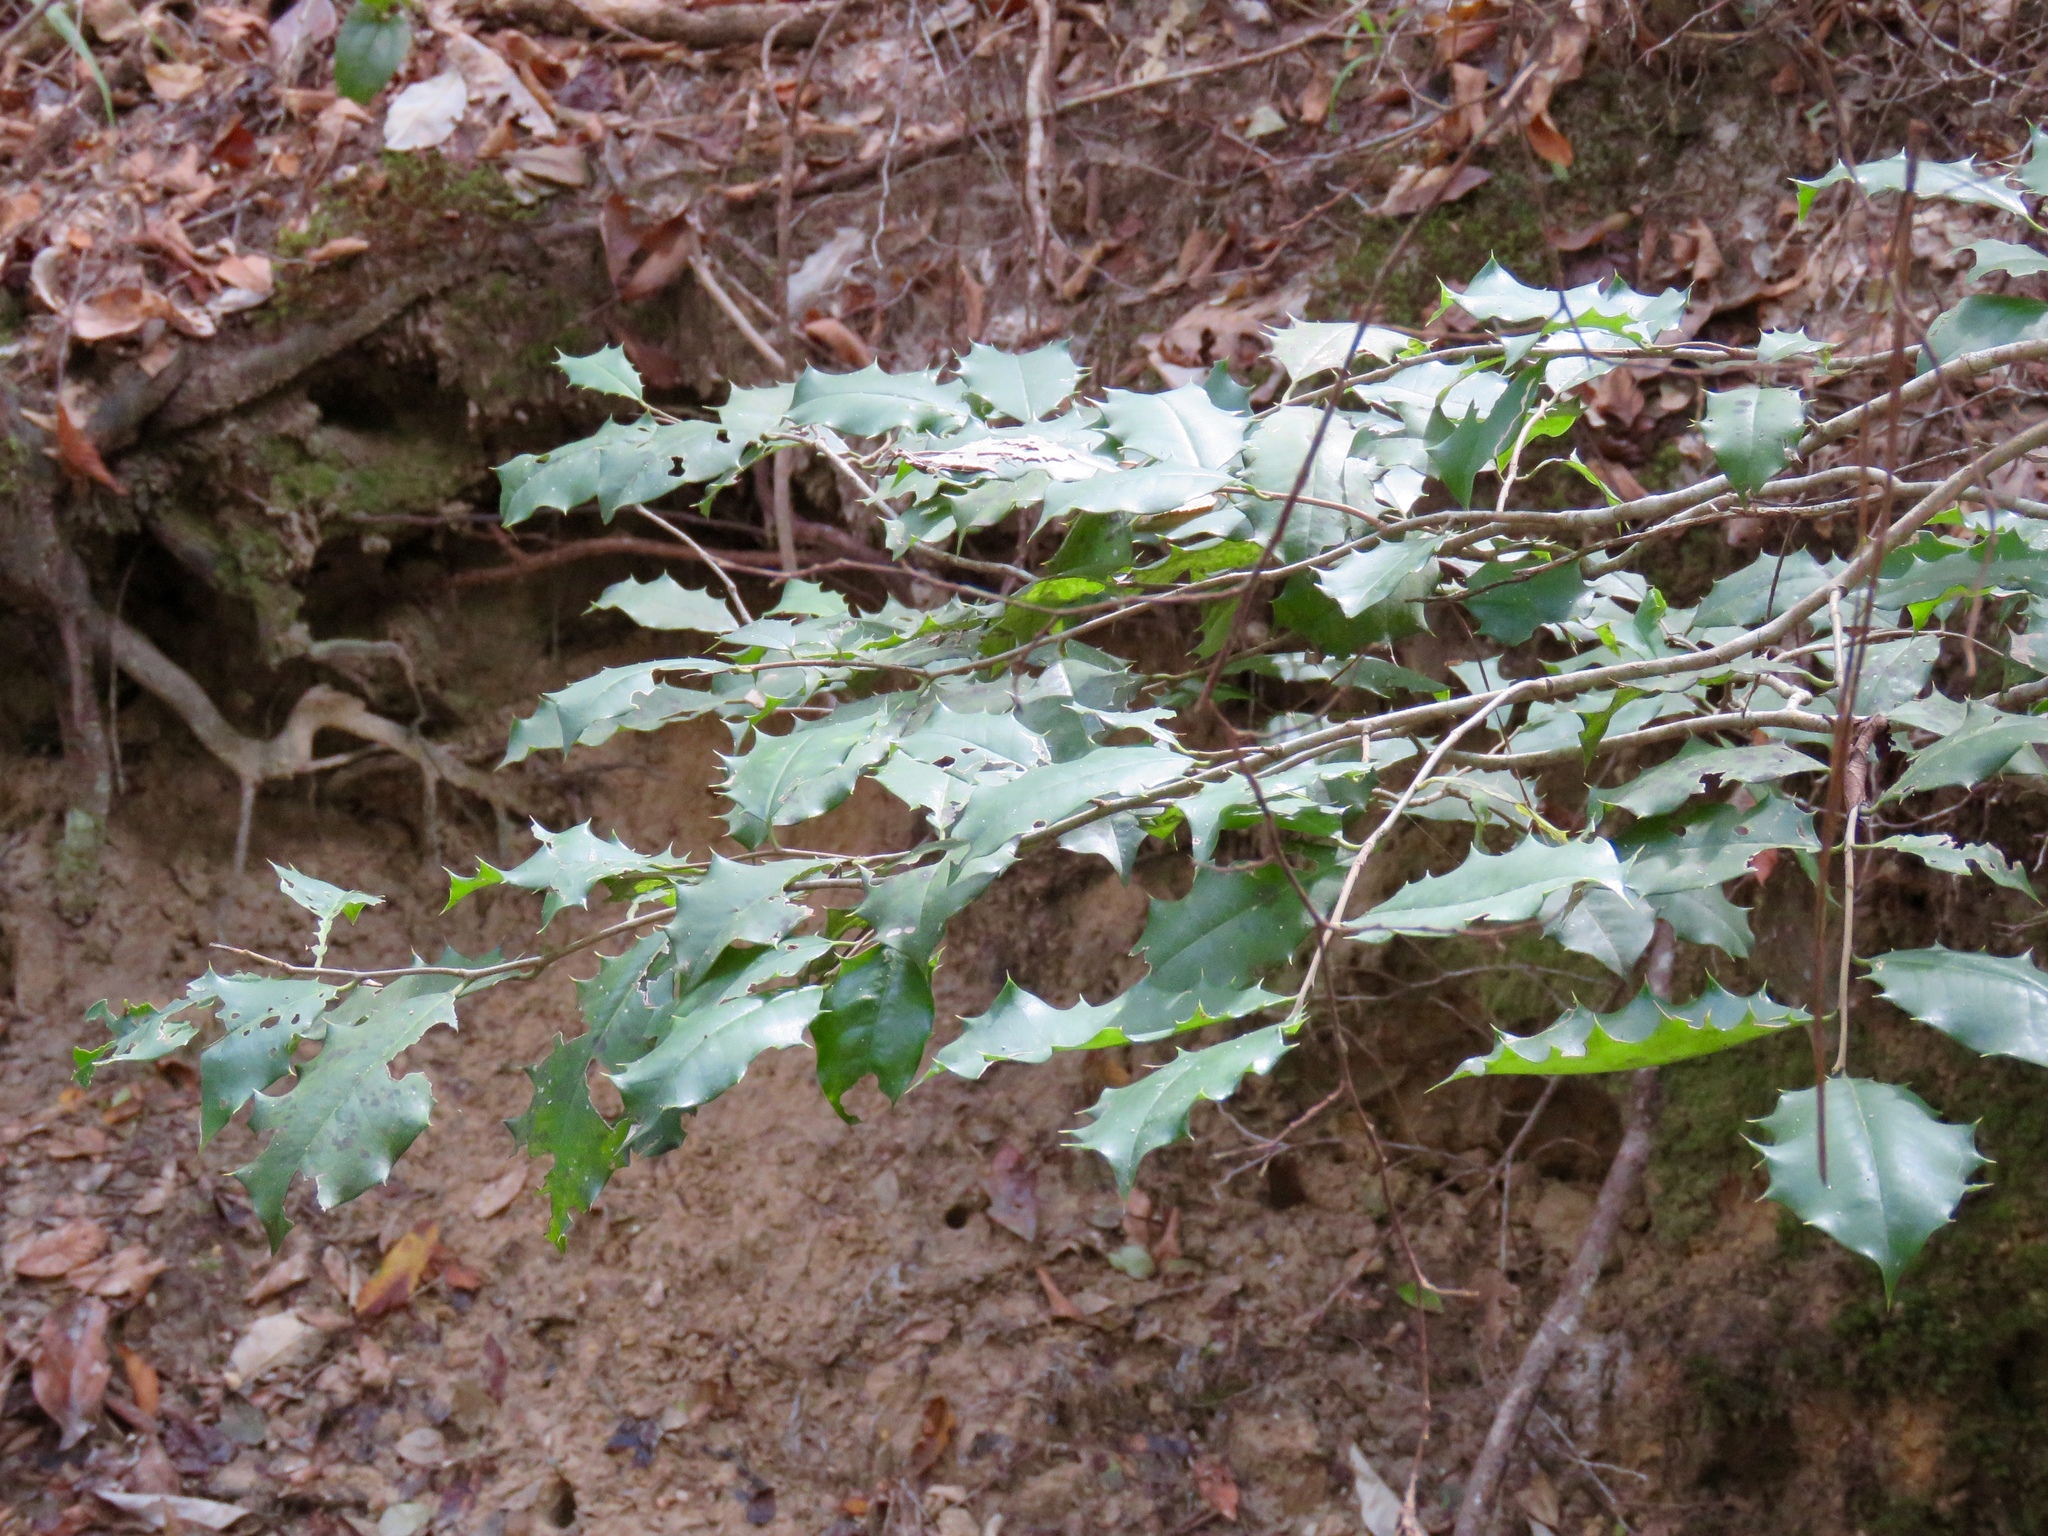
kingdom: Plantae
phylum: Tracheophyta
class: Magnoliopsida
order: Aquifoliales
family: Aquifoliaceae
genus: Ilex
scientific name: Ilex opaca
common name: American holly
